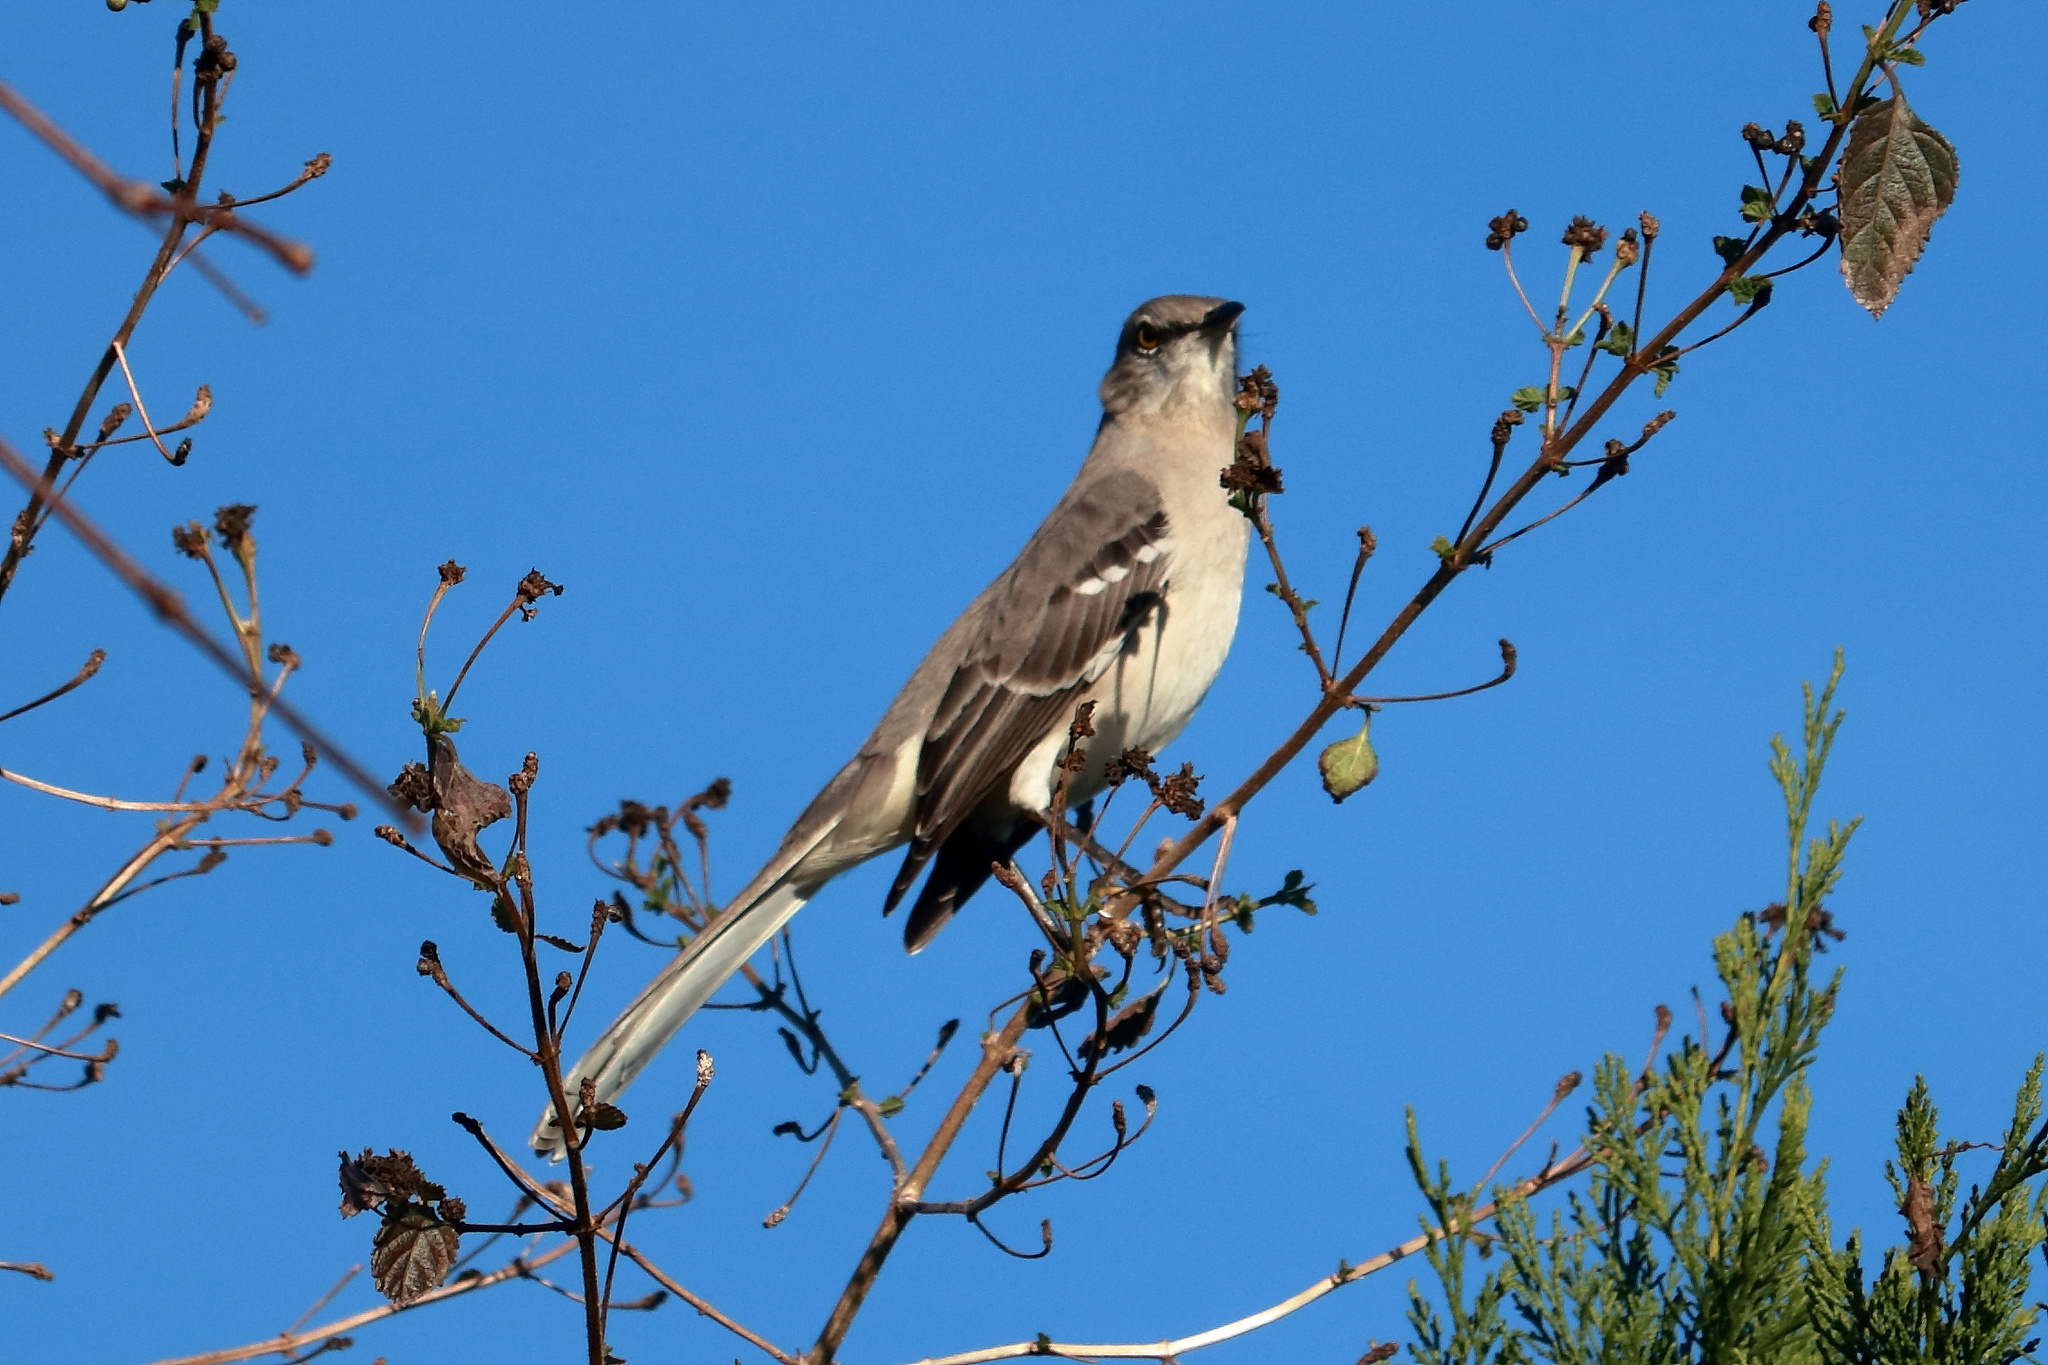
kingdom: Animalia
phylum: Chordata
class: Aves
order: Passeriformes
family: Mimidae
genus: Mimus
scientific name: Mimus polyglottos
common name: Northern mockingbird
